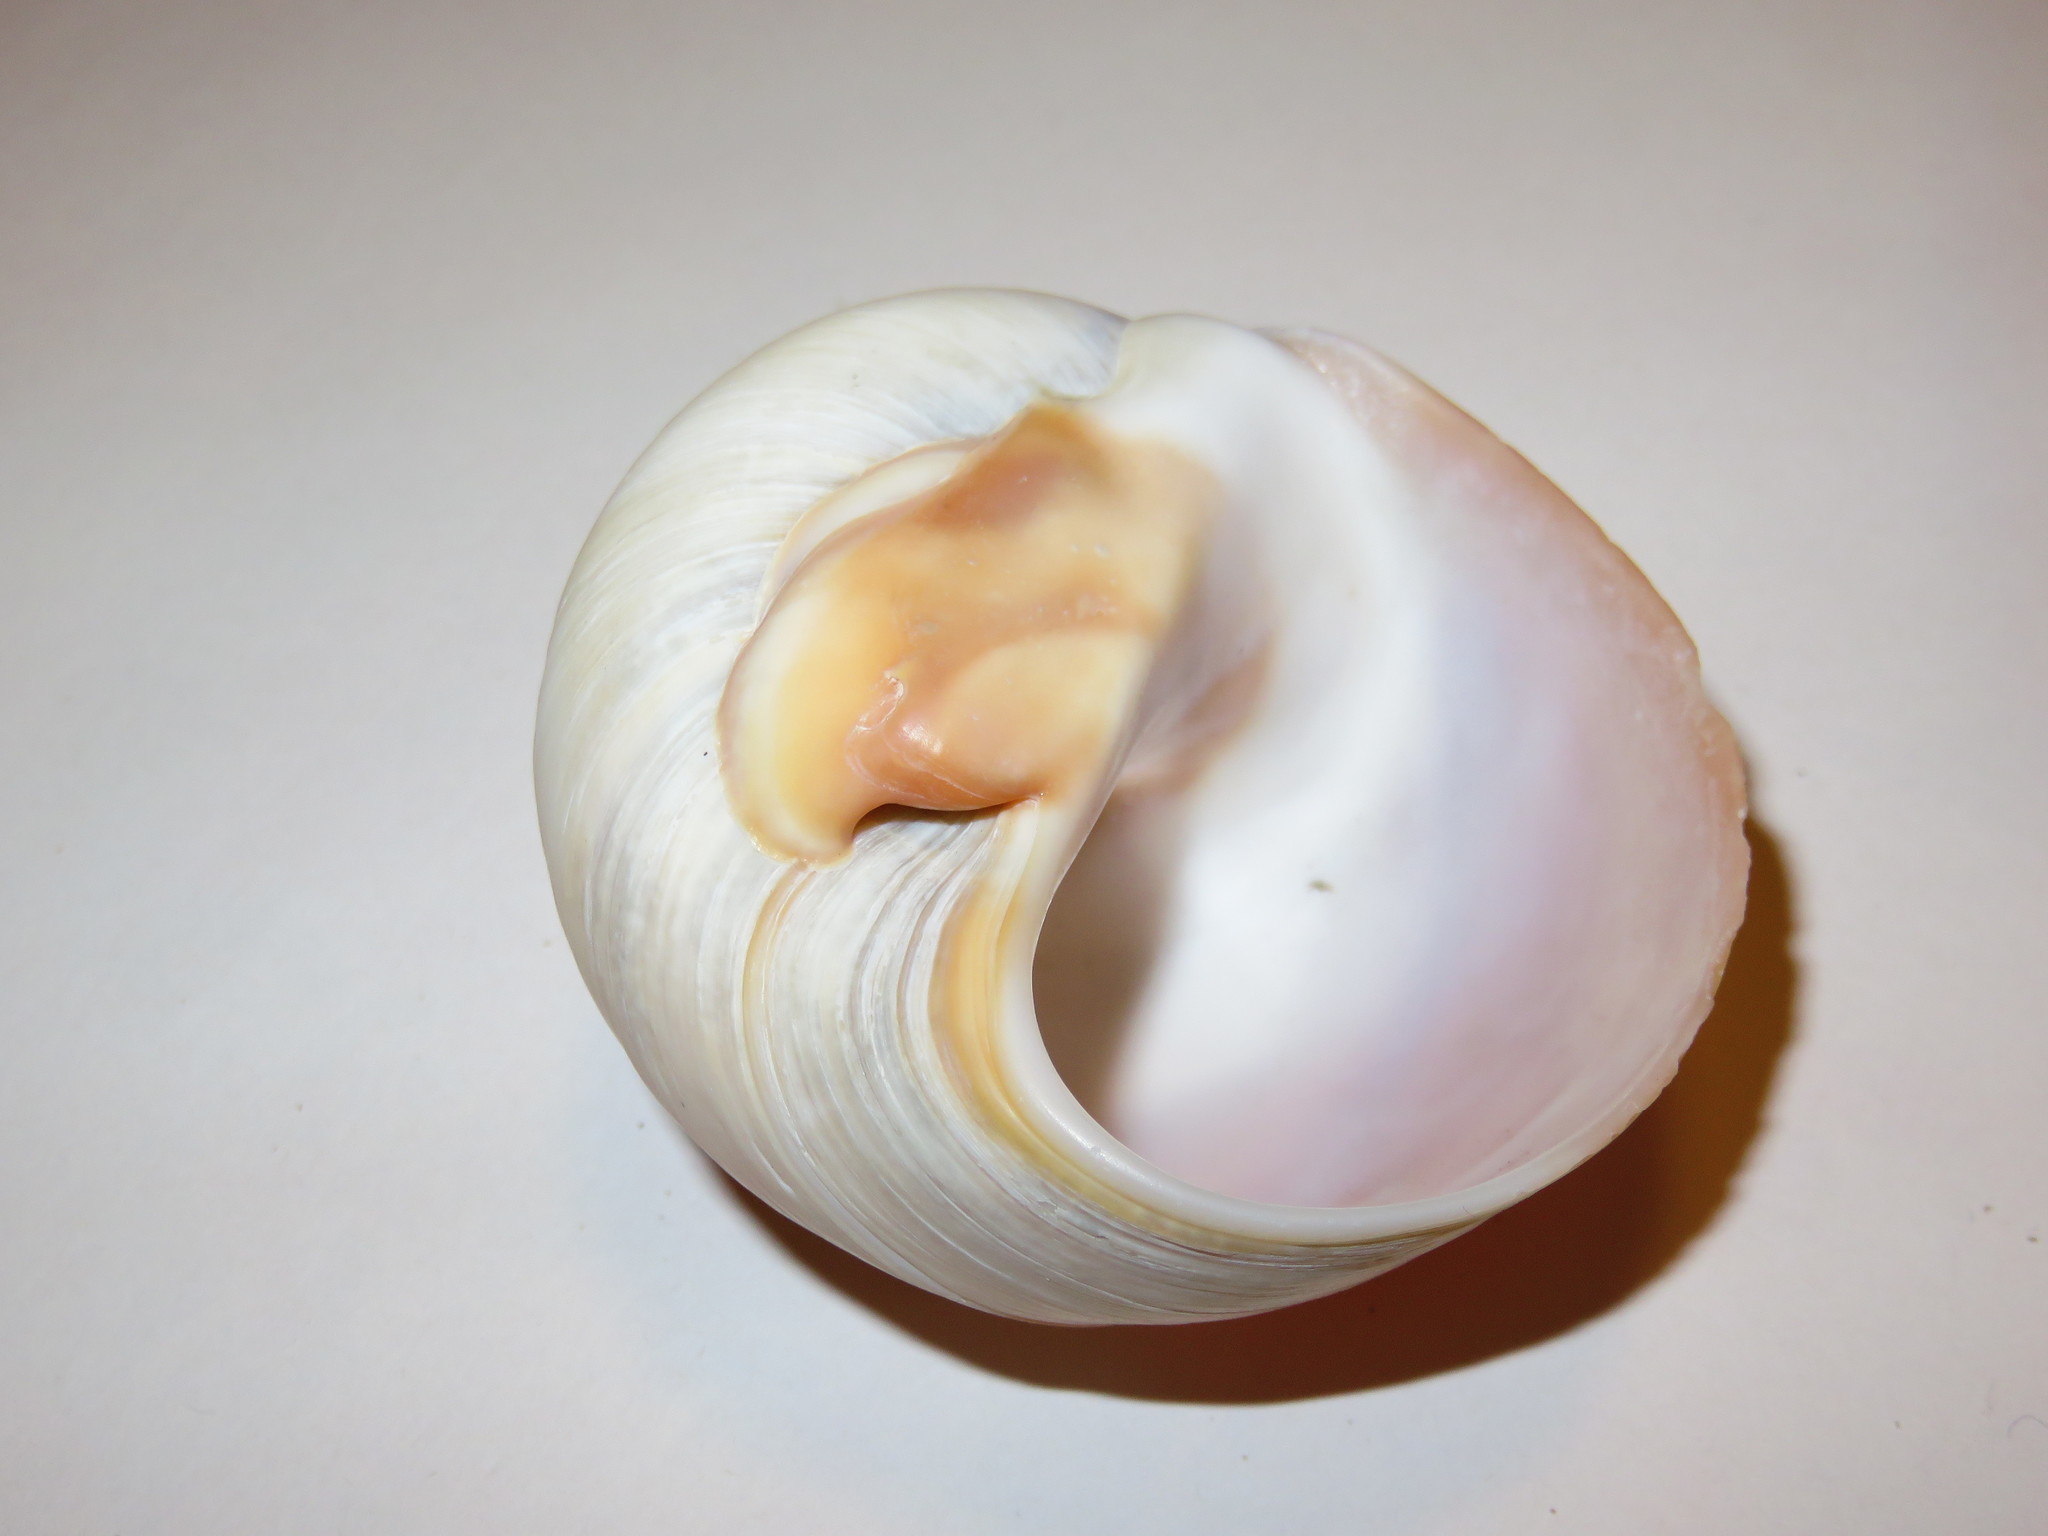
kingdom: Animalia
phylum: Mollusca
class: Gastropoda
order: Littorinimorpha
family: Naticidae
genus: Neverita
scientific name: Neverita didyma
